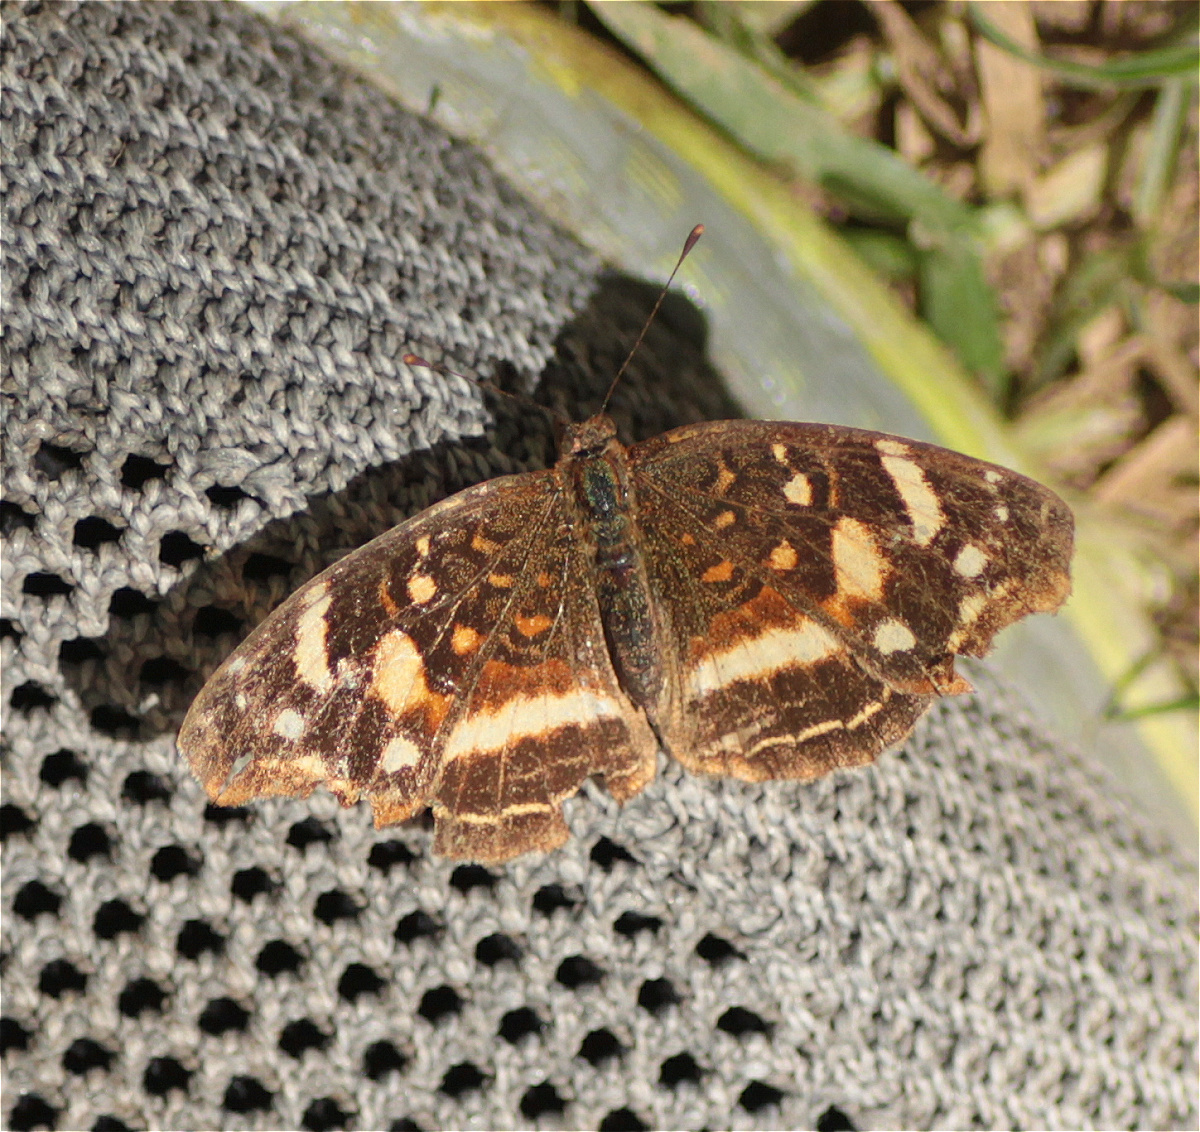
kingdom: Animalia
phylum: Arthropoda
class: Insecta
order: Lepidoptera
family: Nymphalidae
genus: Anthanassa
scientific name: Anthanassa drusilla
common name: Orange-patched crescent
